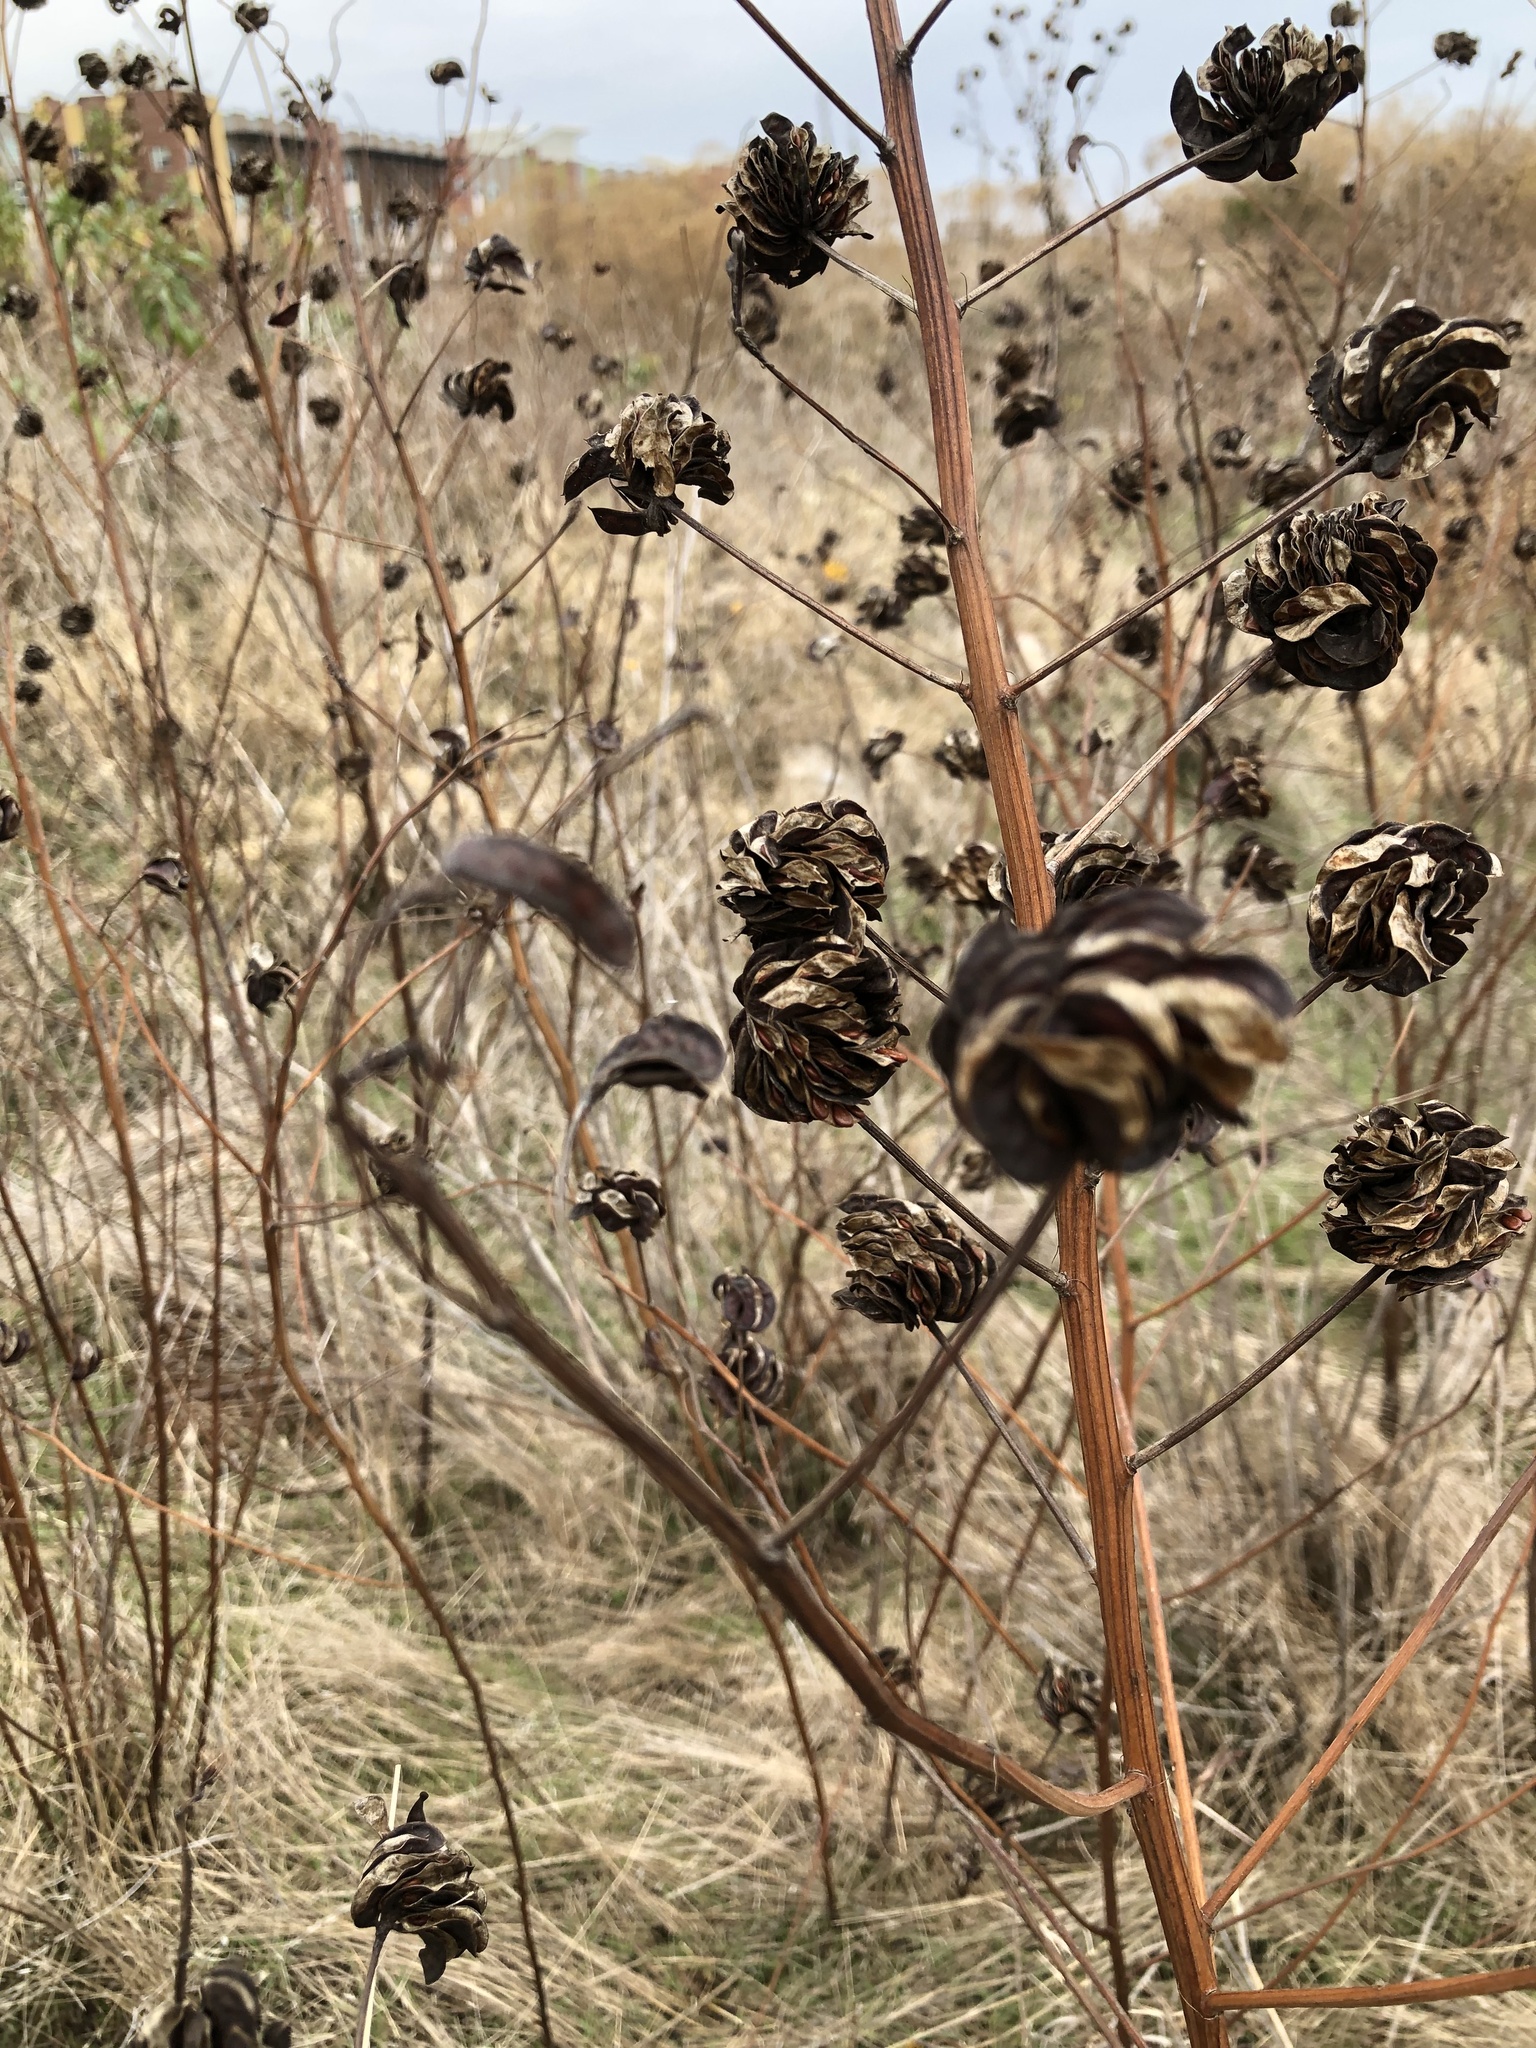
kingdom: Plantae
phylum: Tracheophyta
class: Magnoliopsida
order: Fabales
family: Fabaceae
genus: Desmanthus
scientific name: Desmanthus illinoensis
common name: Illinois bundle-flower
